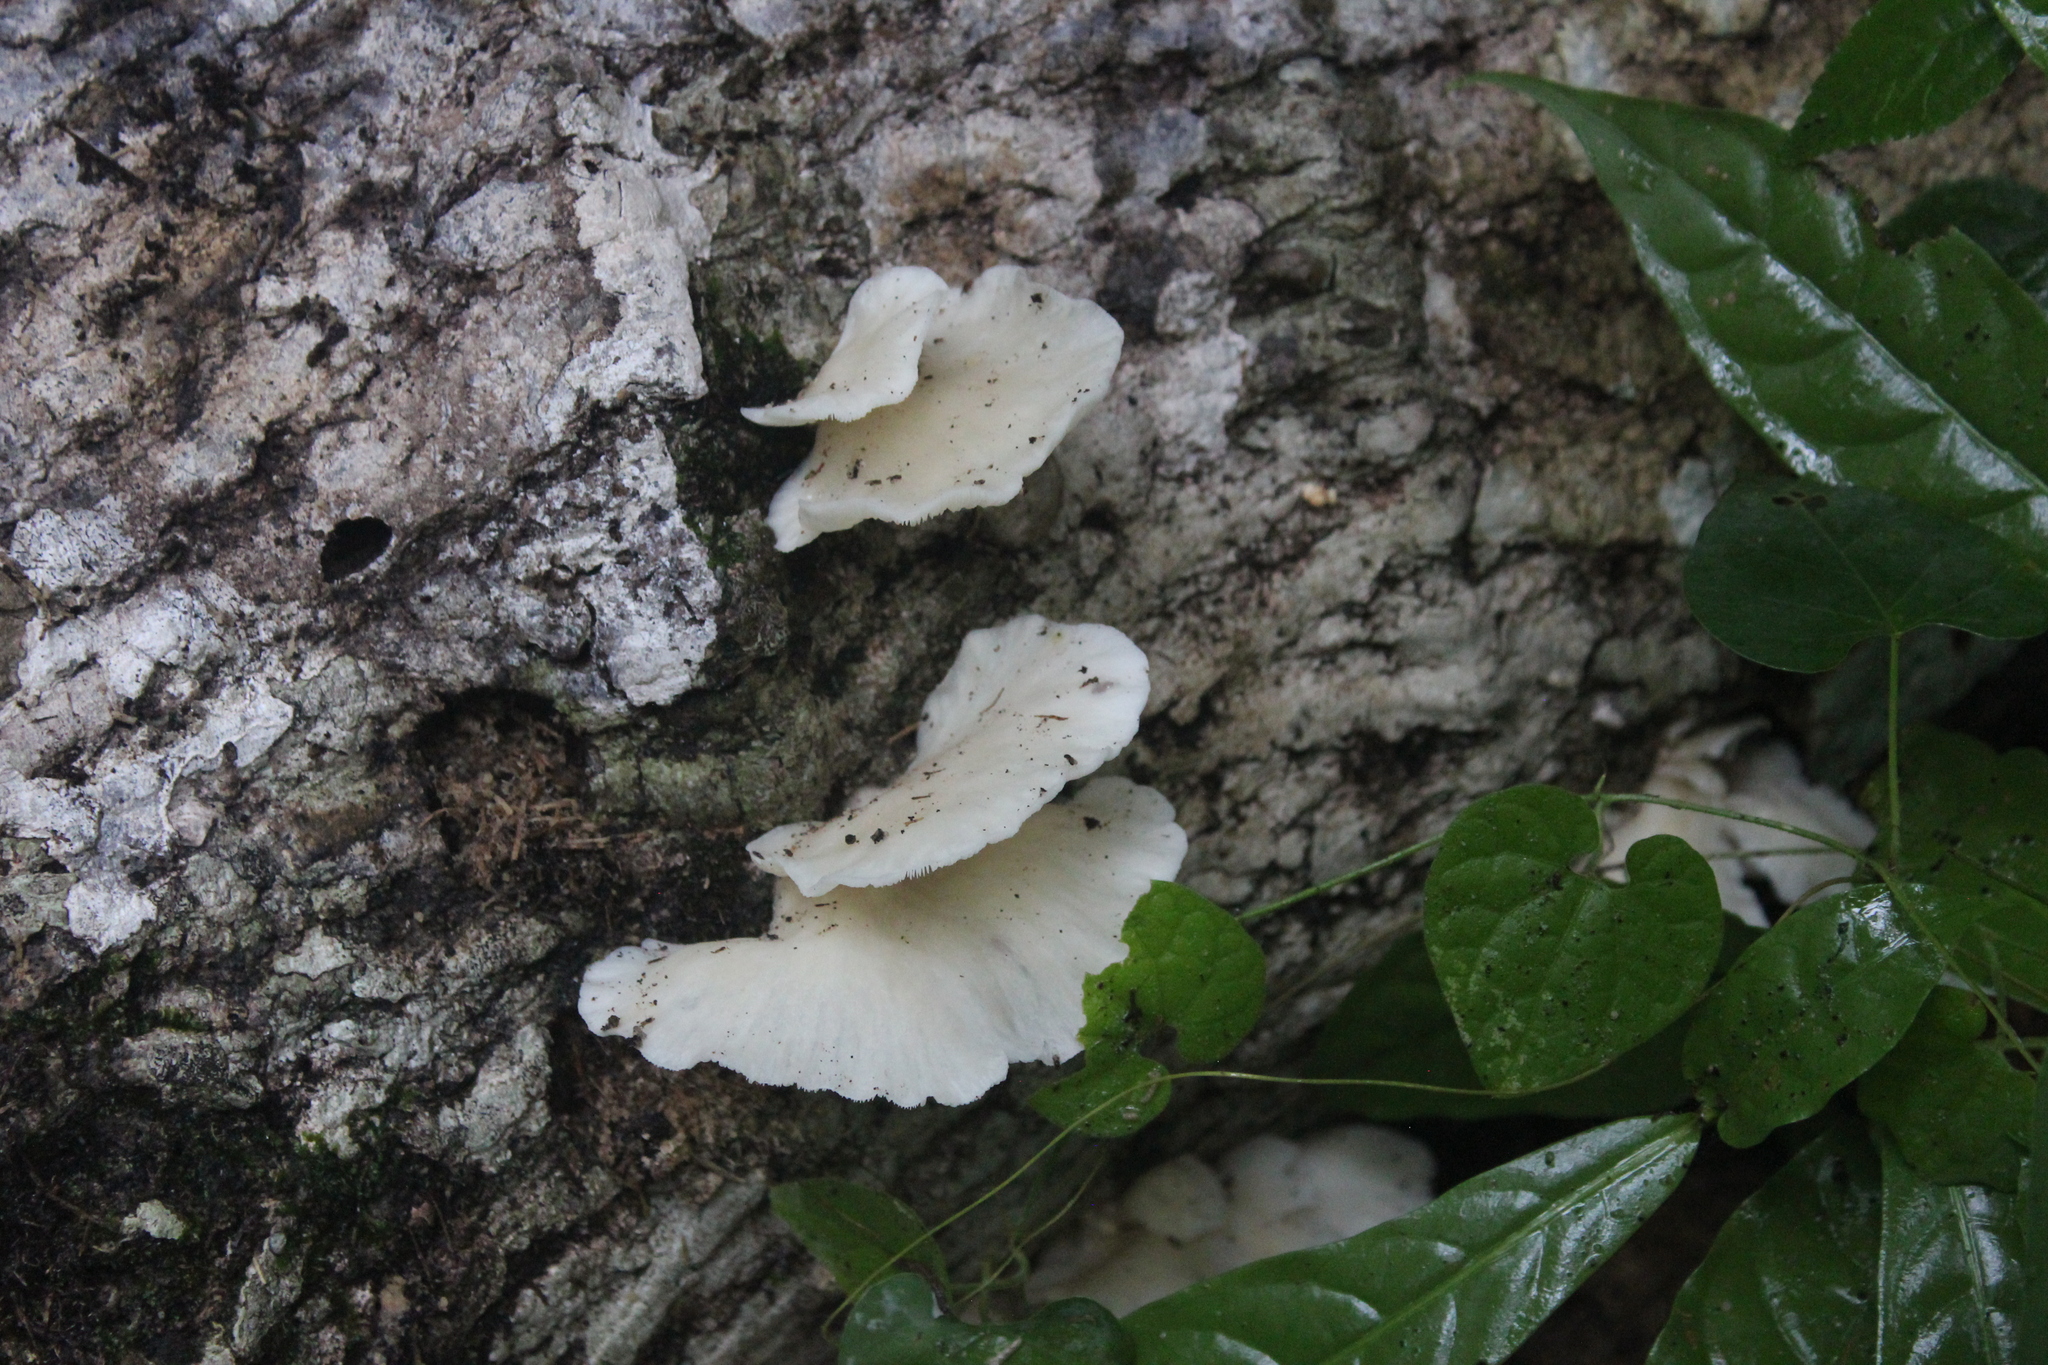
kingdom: Fungi
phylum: Basidiomycota
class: Agaricomycetes
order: Agaricales
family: Pleurotaceae
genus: Pleurotus
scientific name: Pleurotus pulmonarius
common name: Pale oyster
